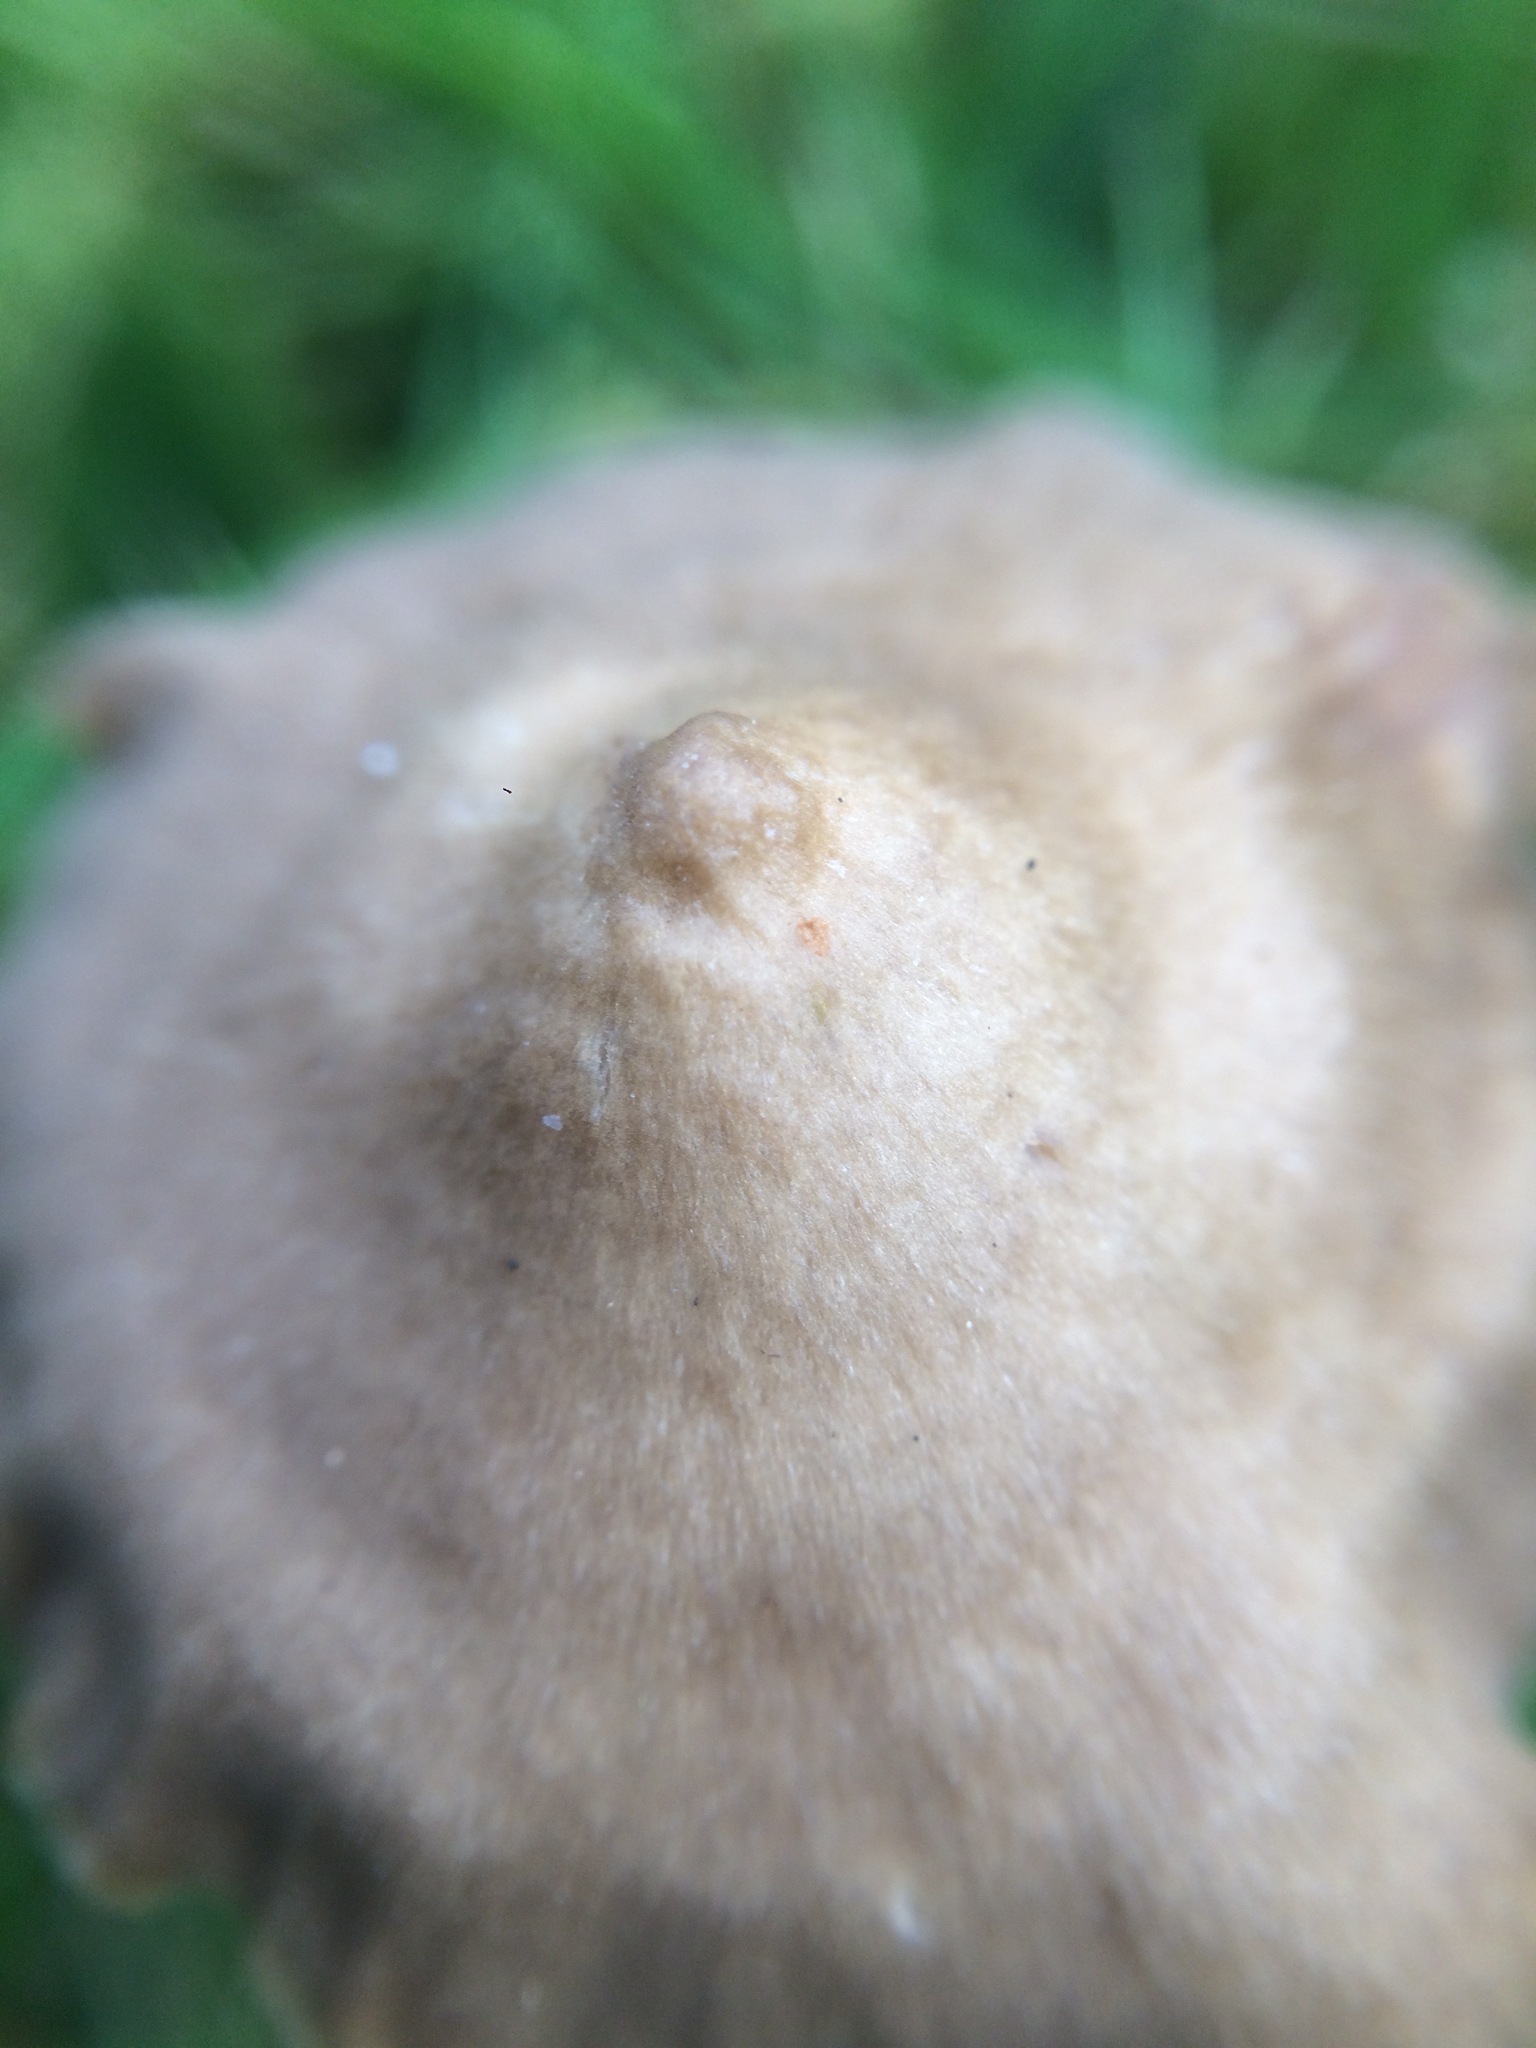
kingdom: Fungi
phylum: Basidiomycota
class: Agaricomycetes
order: Agaricales
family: Entolomataceae
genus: Entoloma
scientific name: Entoloma infula
